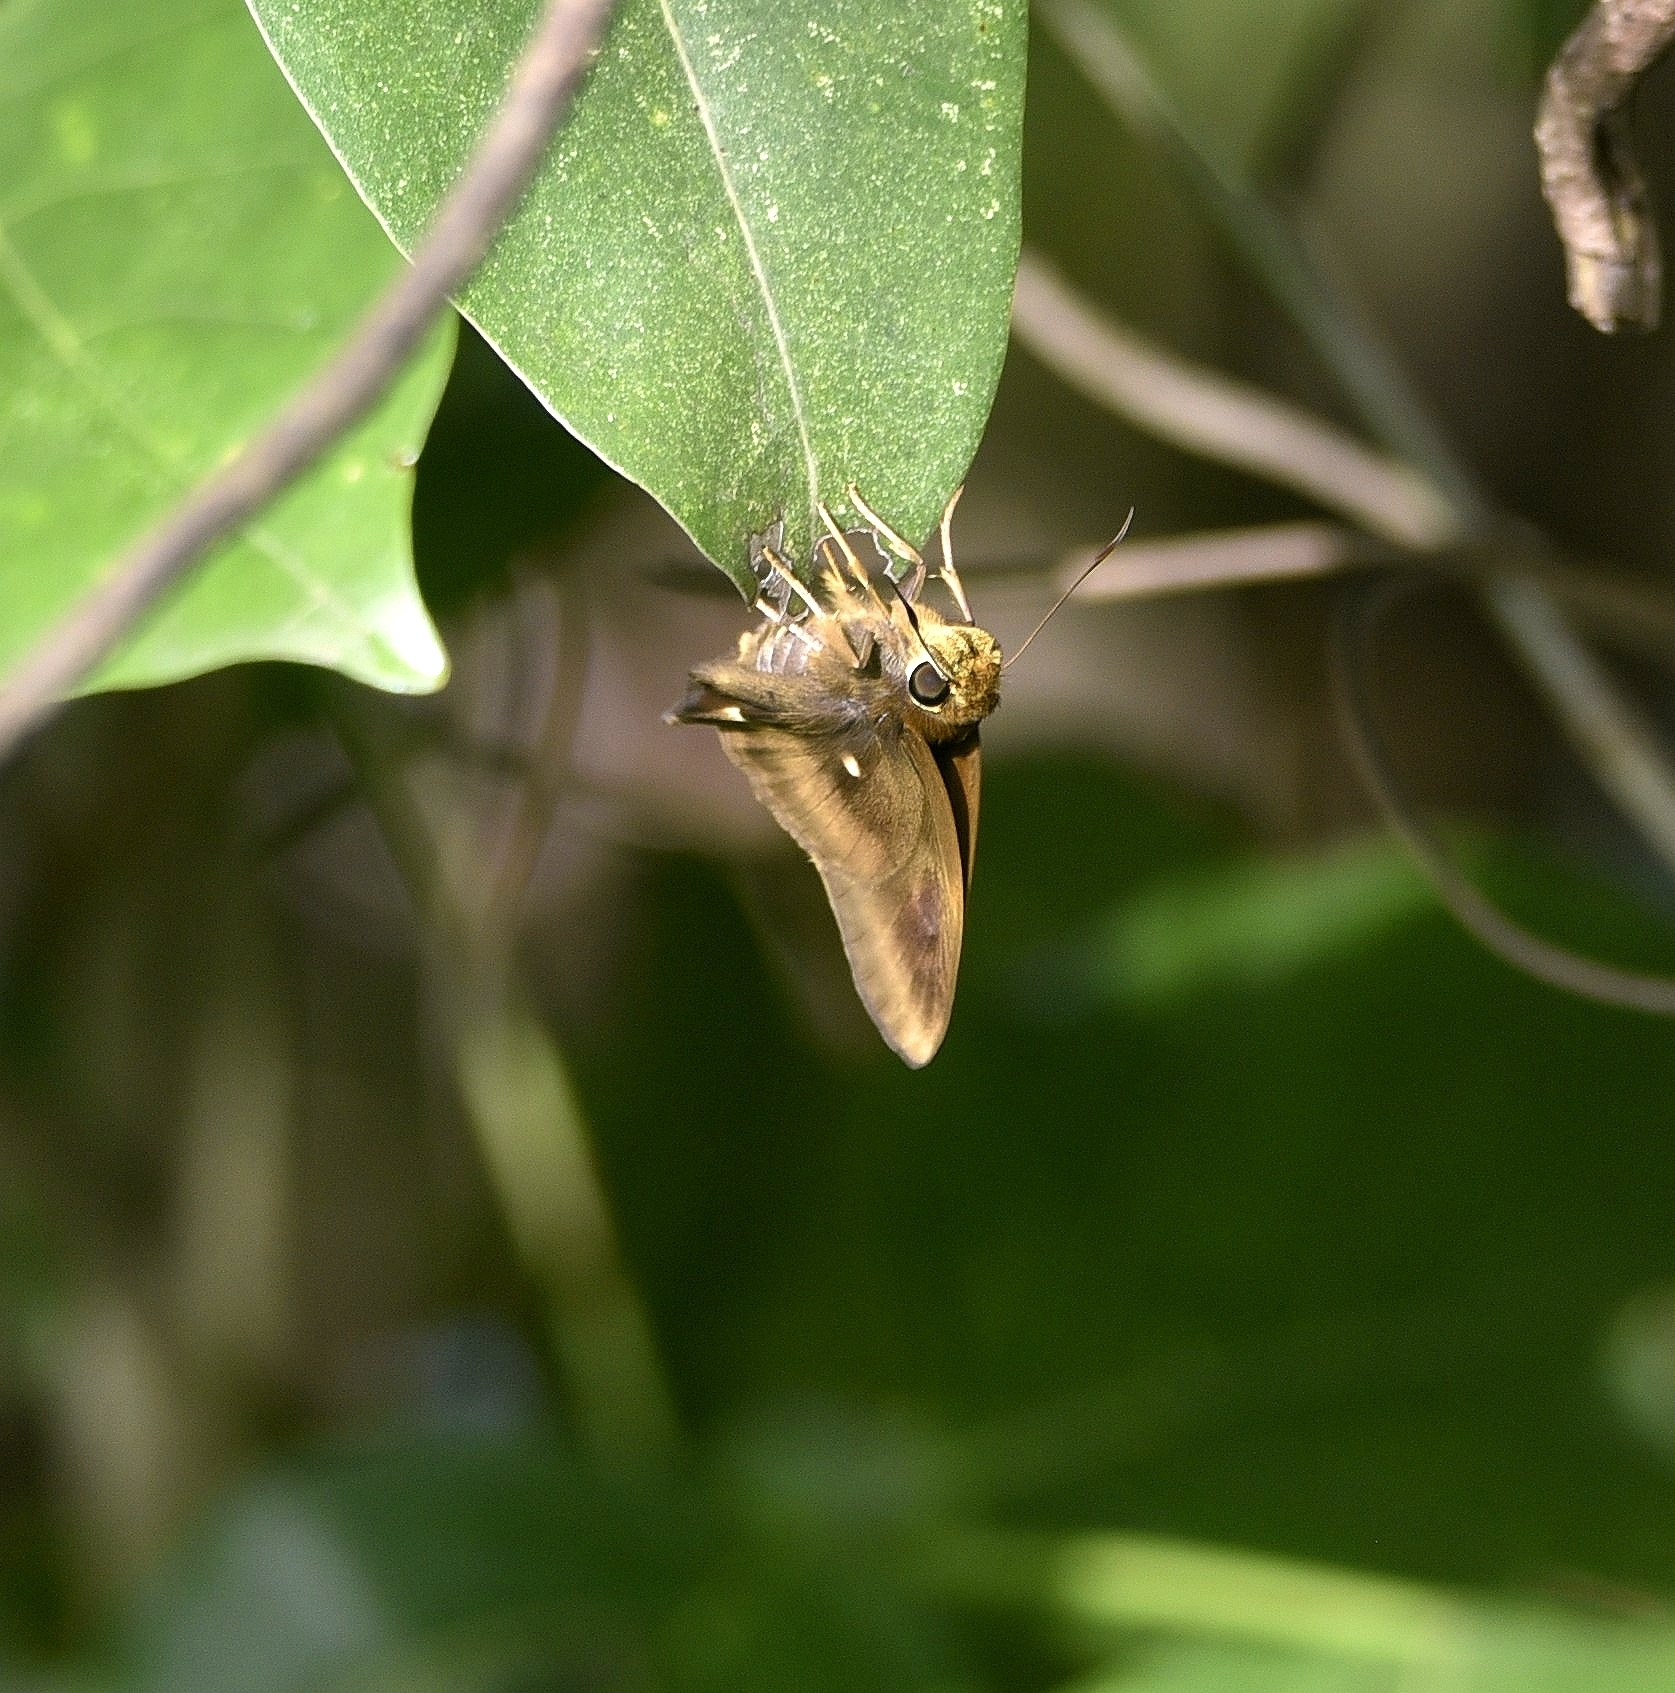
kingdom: Animalia
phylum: Arthropoda
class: Insecta
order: Lepidoptera
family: Hesperiidae
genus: Hasora
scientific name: Hasora badra
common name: Common awl
